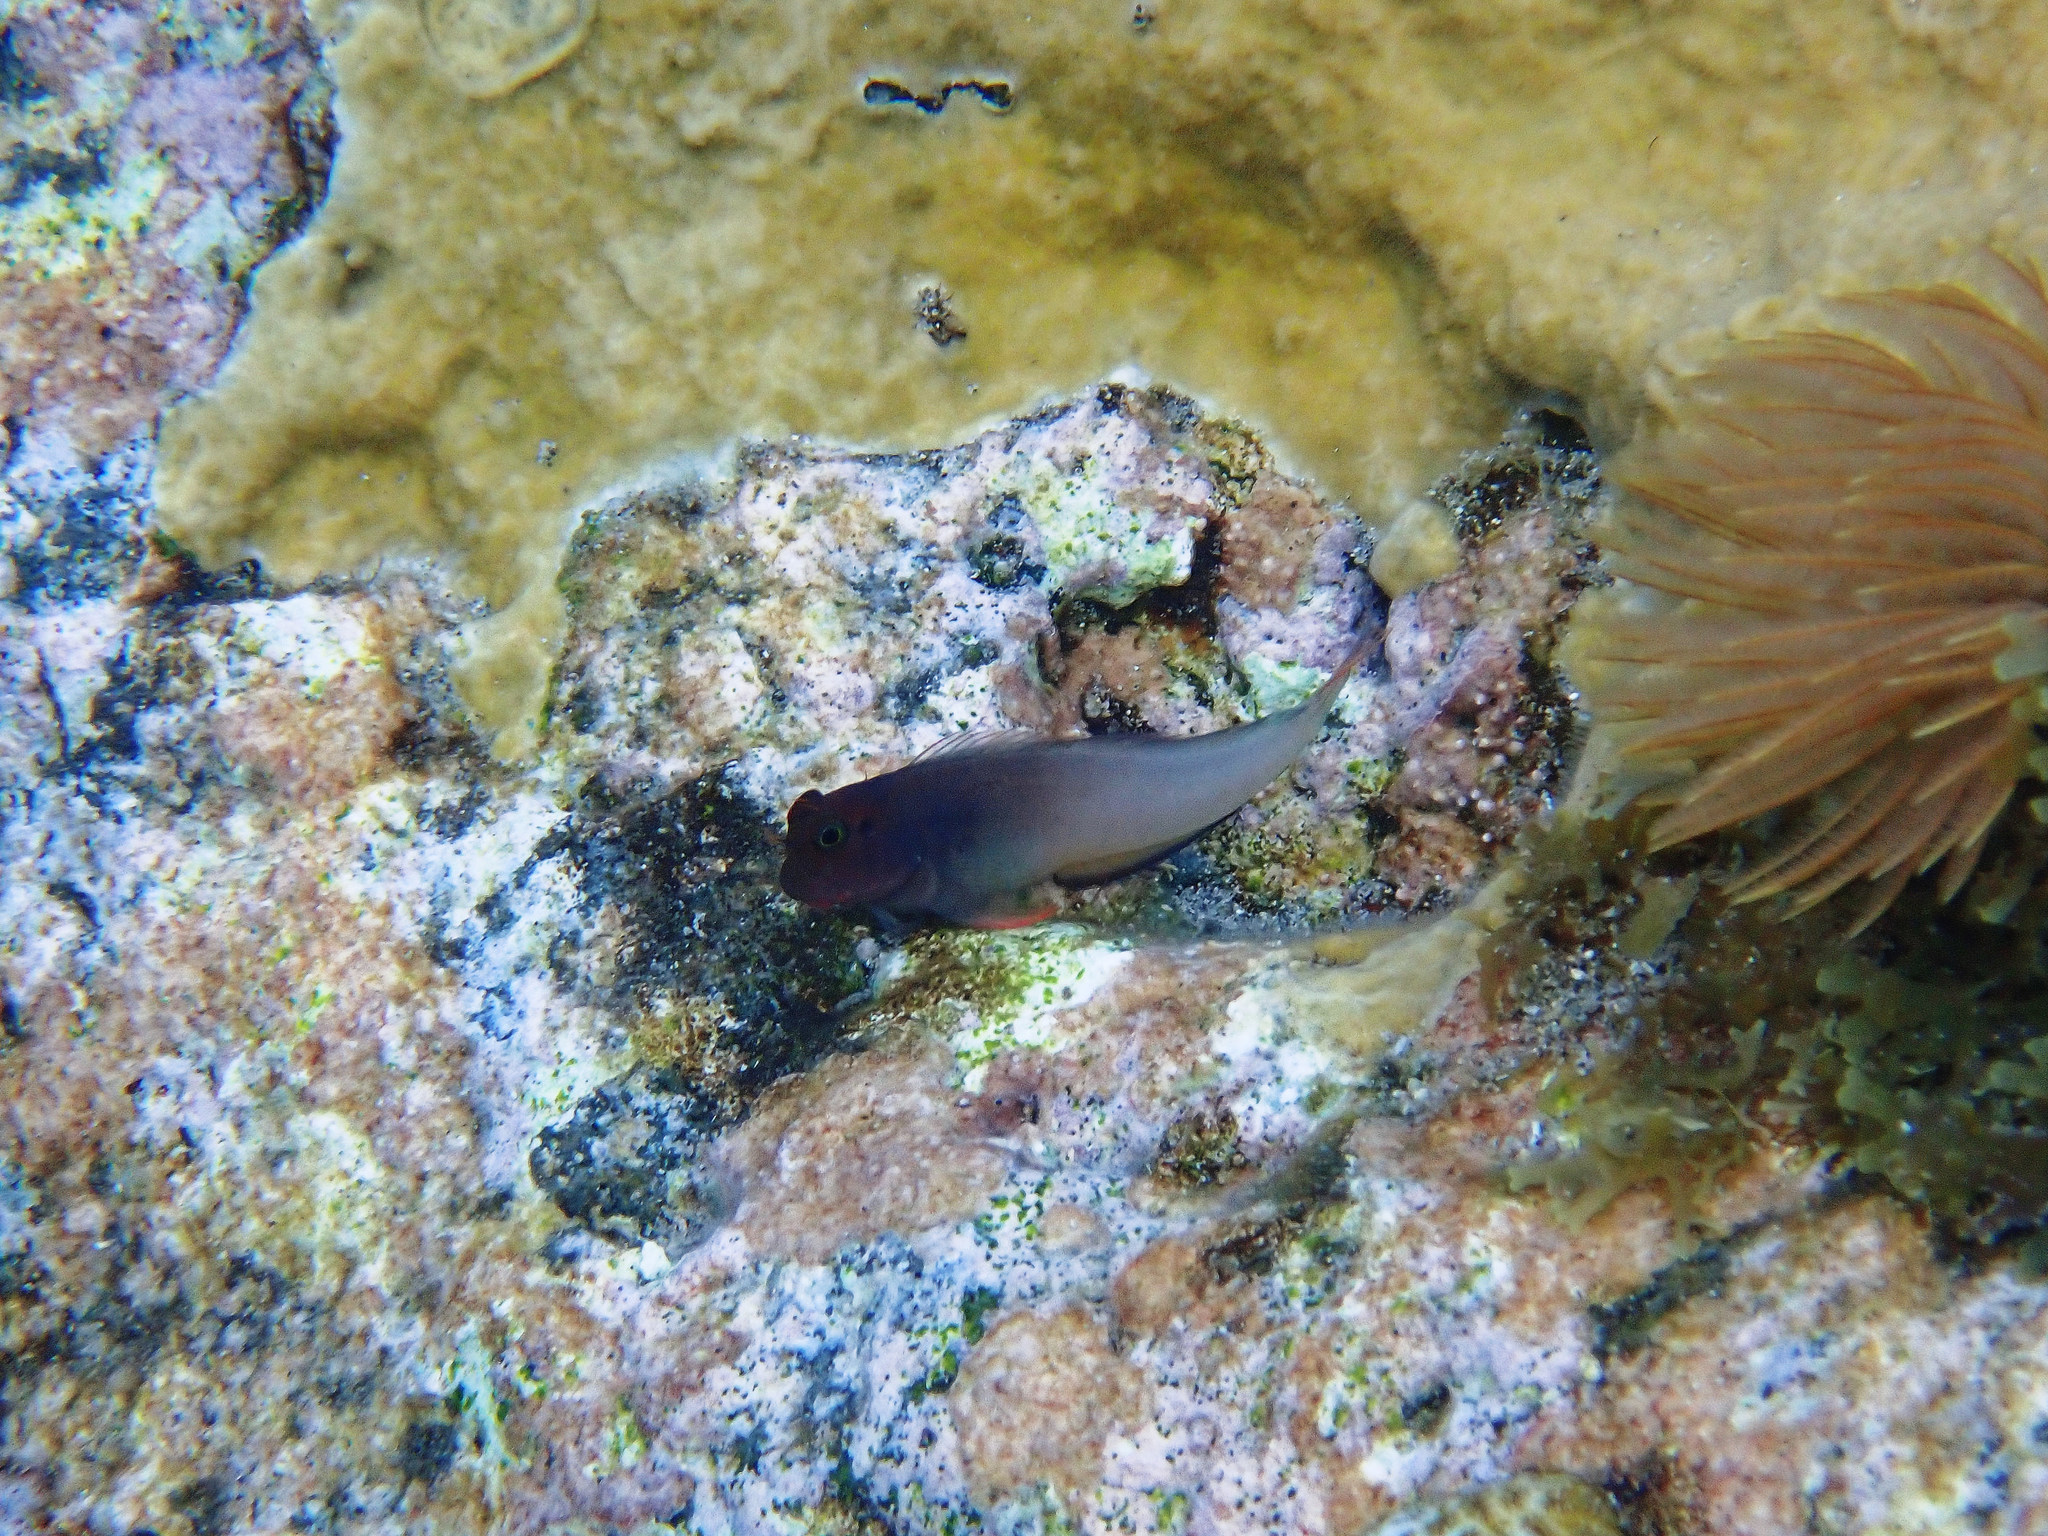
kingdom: Animalia
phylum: Chordata
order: Perciformes
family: Blenniidae
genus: Ophioblennius
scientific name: Ophioblennius macclurei
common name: Redlip blenny
